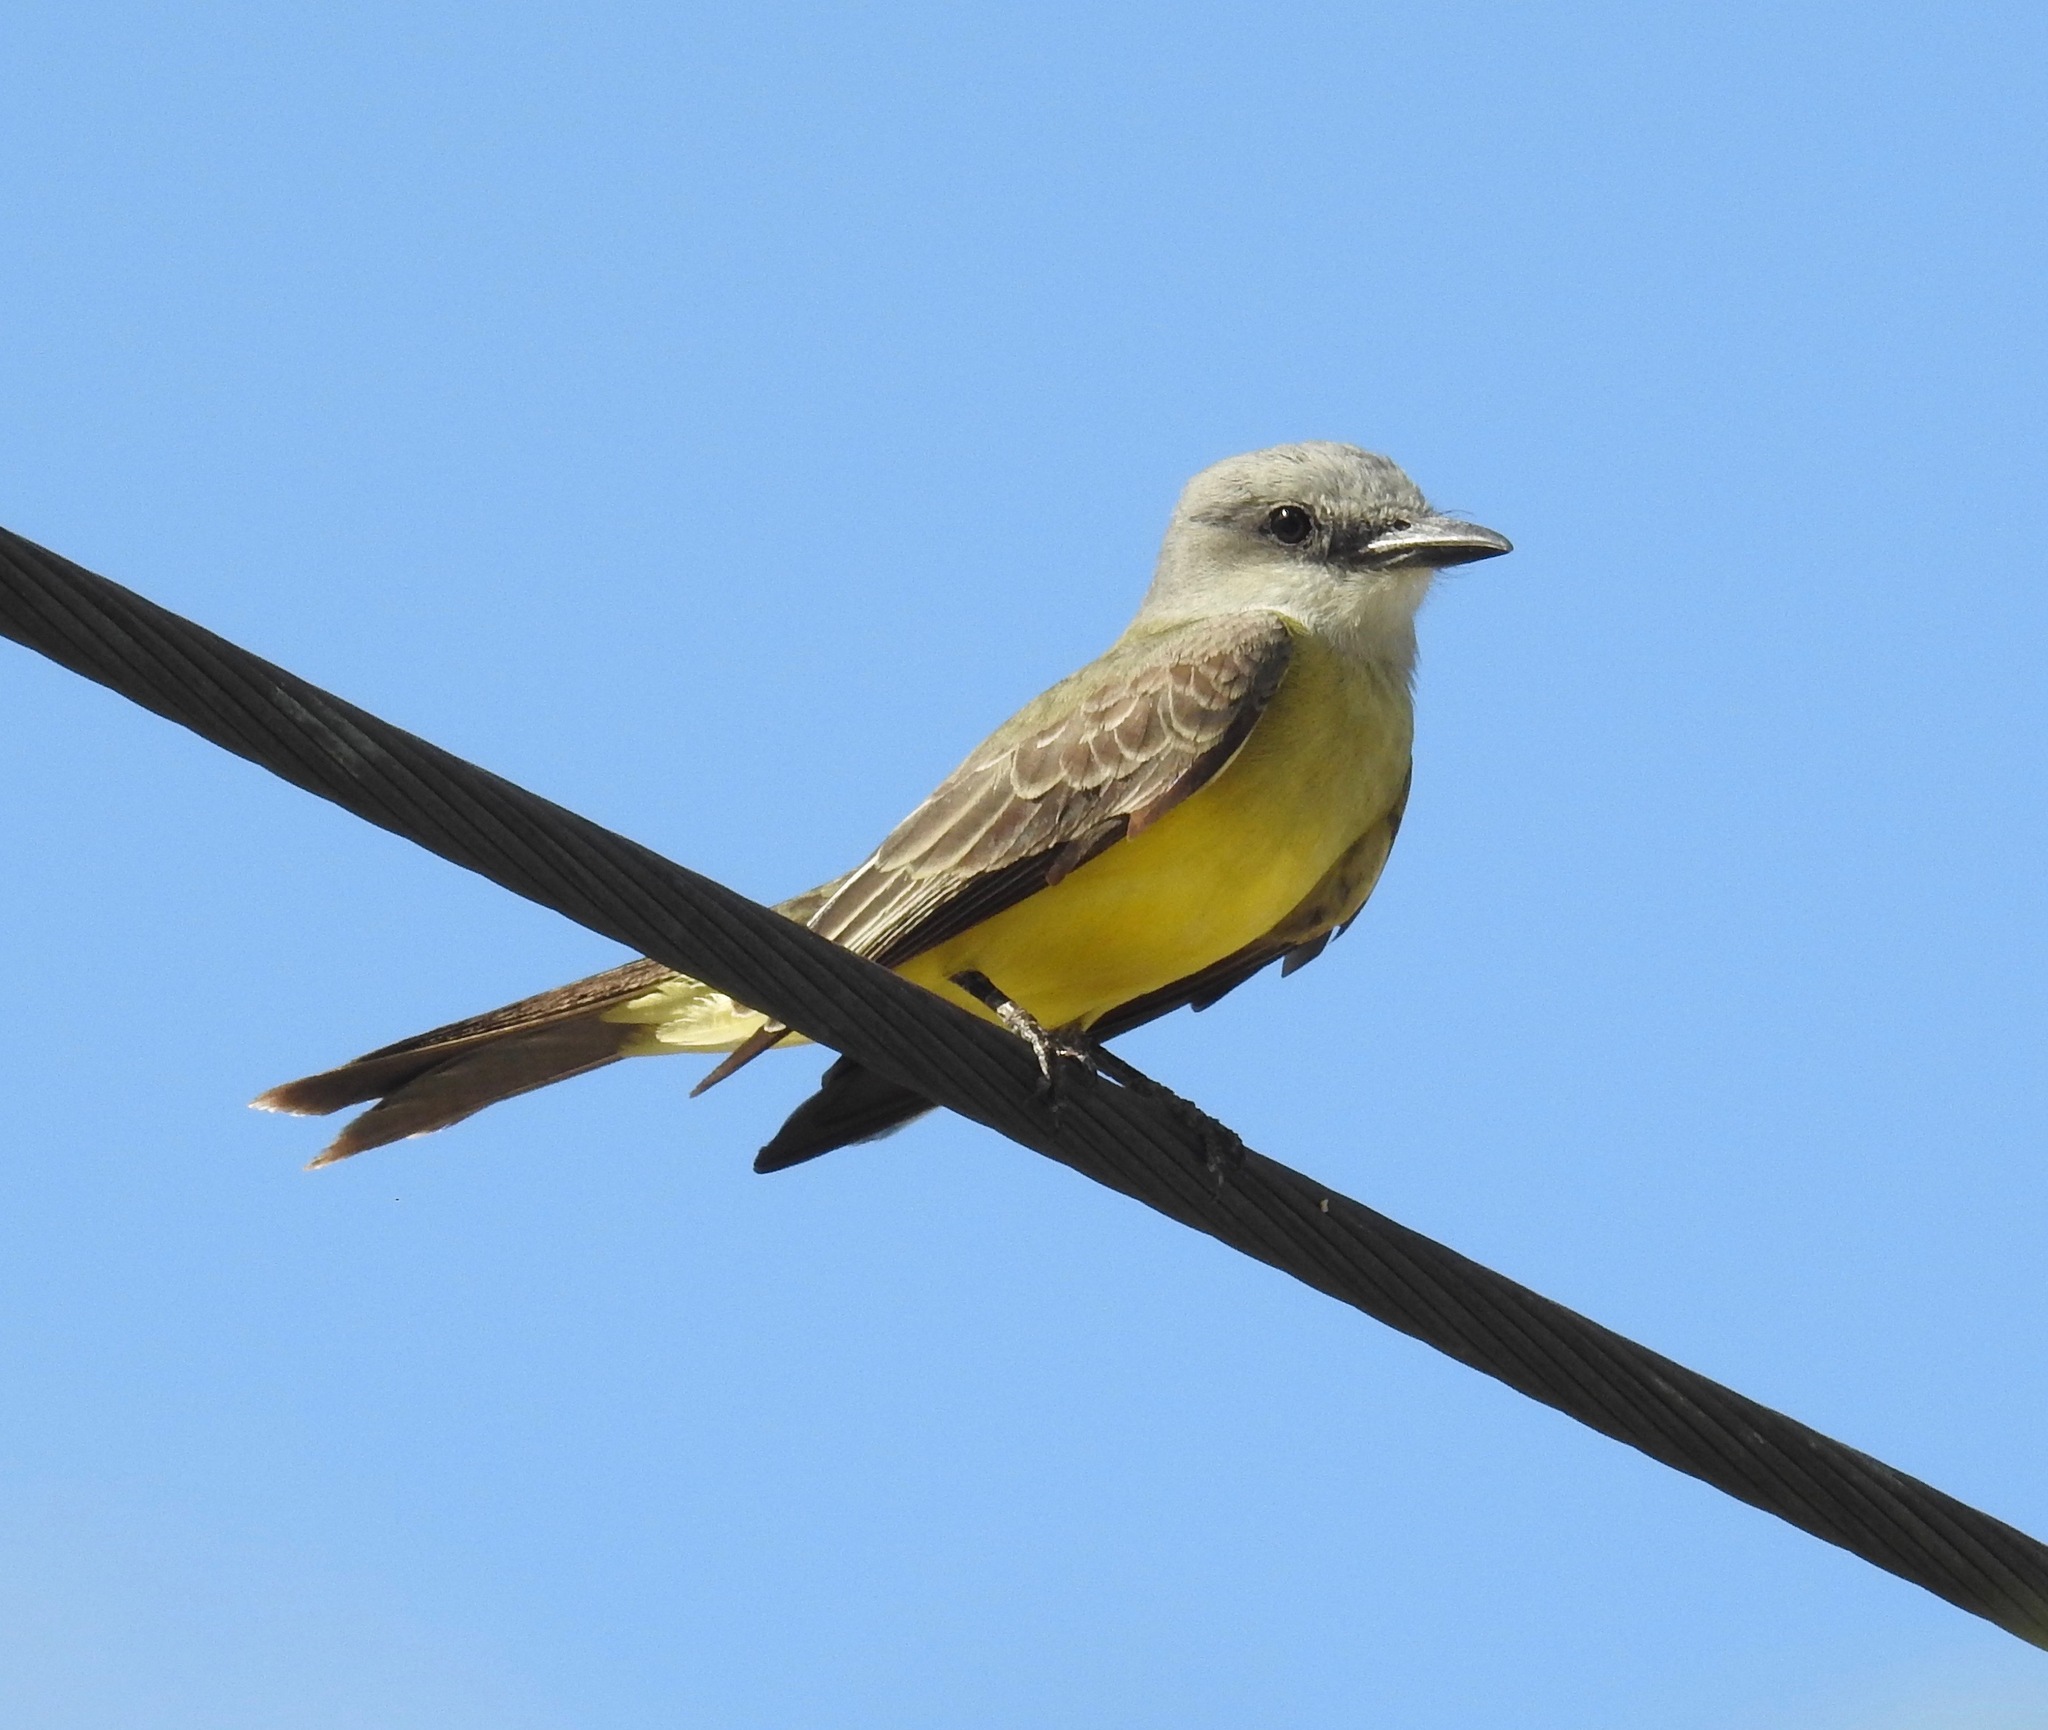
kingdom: Animalia
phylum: Chordata
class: Aves
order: Passeriformes
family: Tyrannidae
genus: Tyrannus
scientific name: Tyrannus melancholicus
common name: Tropical kingbird
